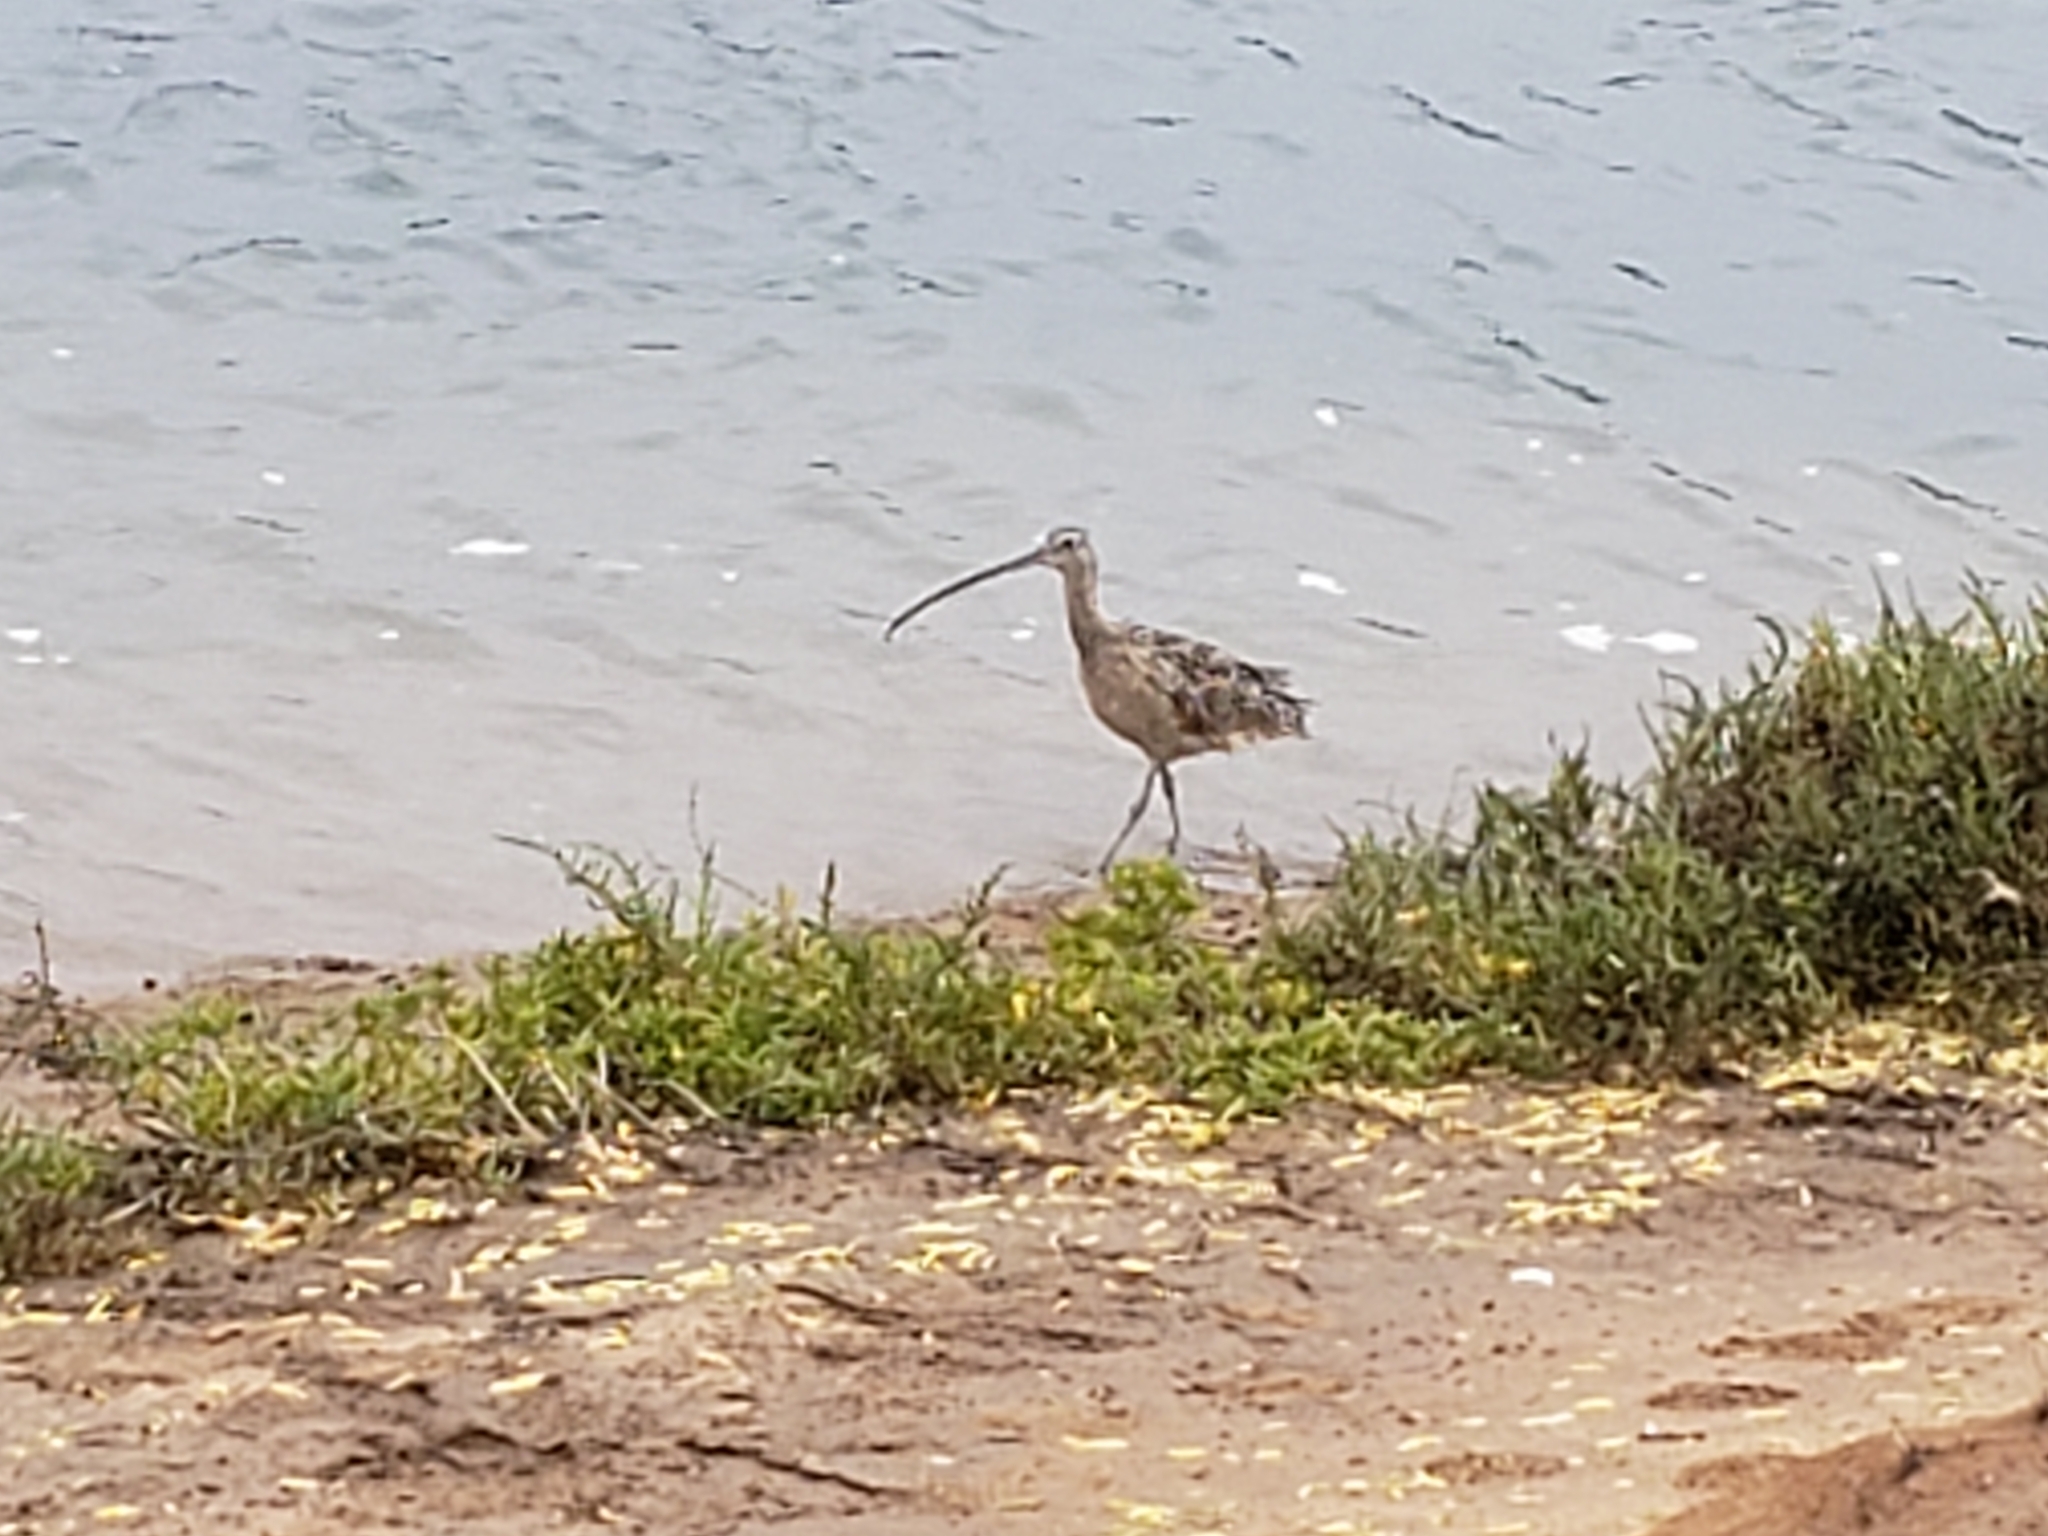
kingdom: Animalia
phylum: Chordata
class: Aves
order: Charadriiformes
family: Scolopacidae
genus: Numenius
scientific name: Numenius americanus
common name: Long-billed curlew
